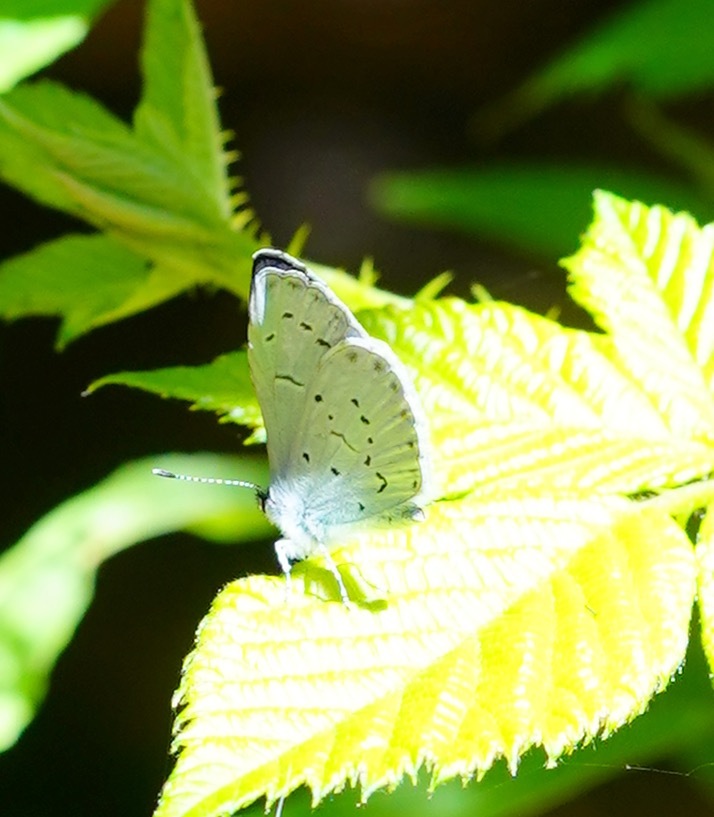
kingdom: Animalia
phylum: Arthropoda
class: Insecta
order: Lepidoptera
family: Lycaenidae
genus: Celastrina
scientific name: Celastrina ladon
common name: Spring azure
